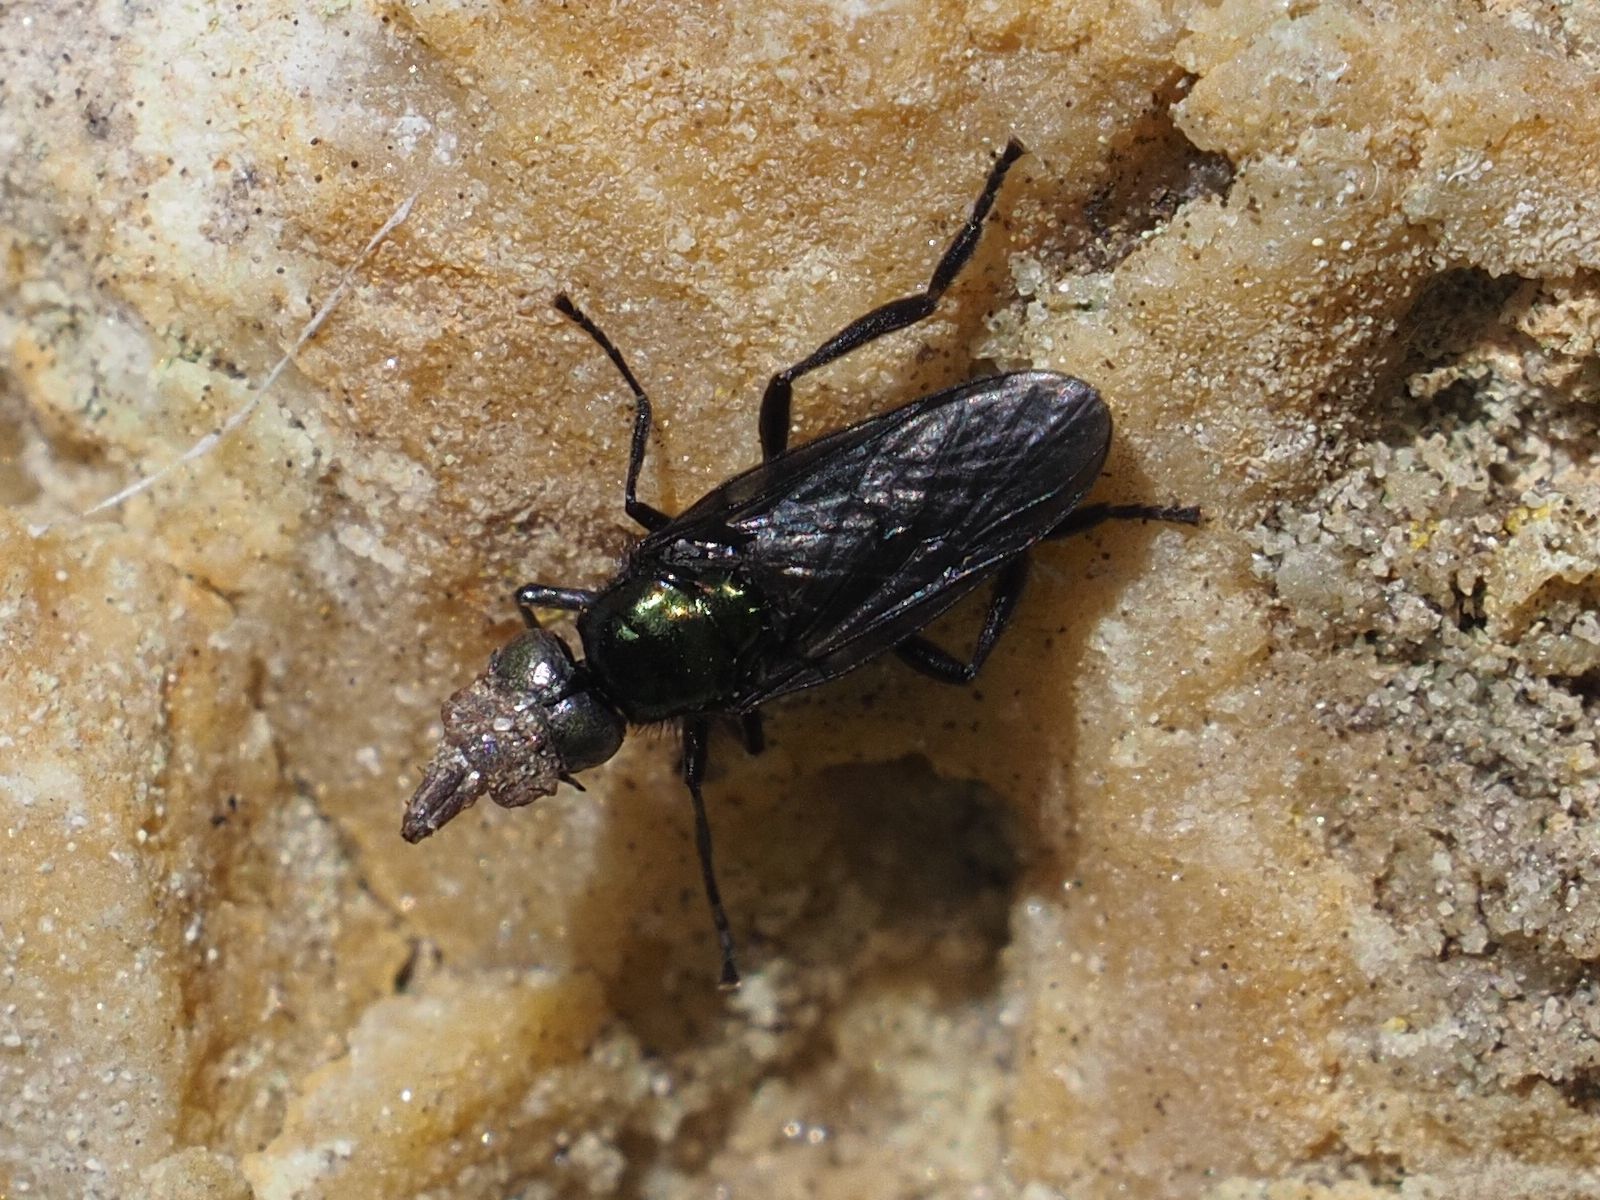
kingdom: Animalia
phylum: Arthropoda
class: Insecta
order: Diptera
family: Stratiomyidae
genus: Actina
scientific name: Actina chalybea
